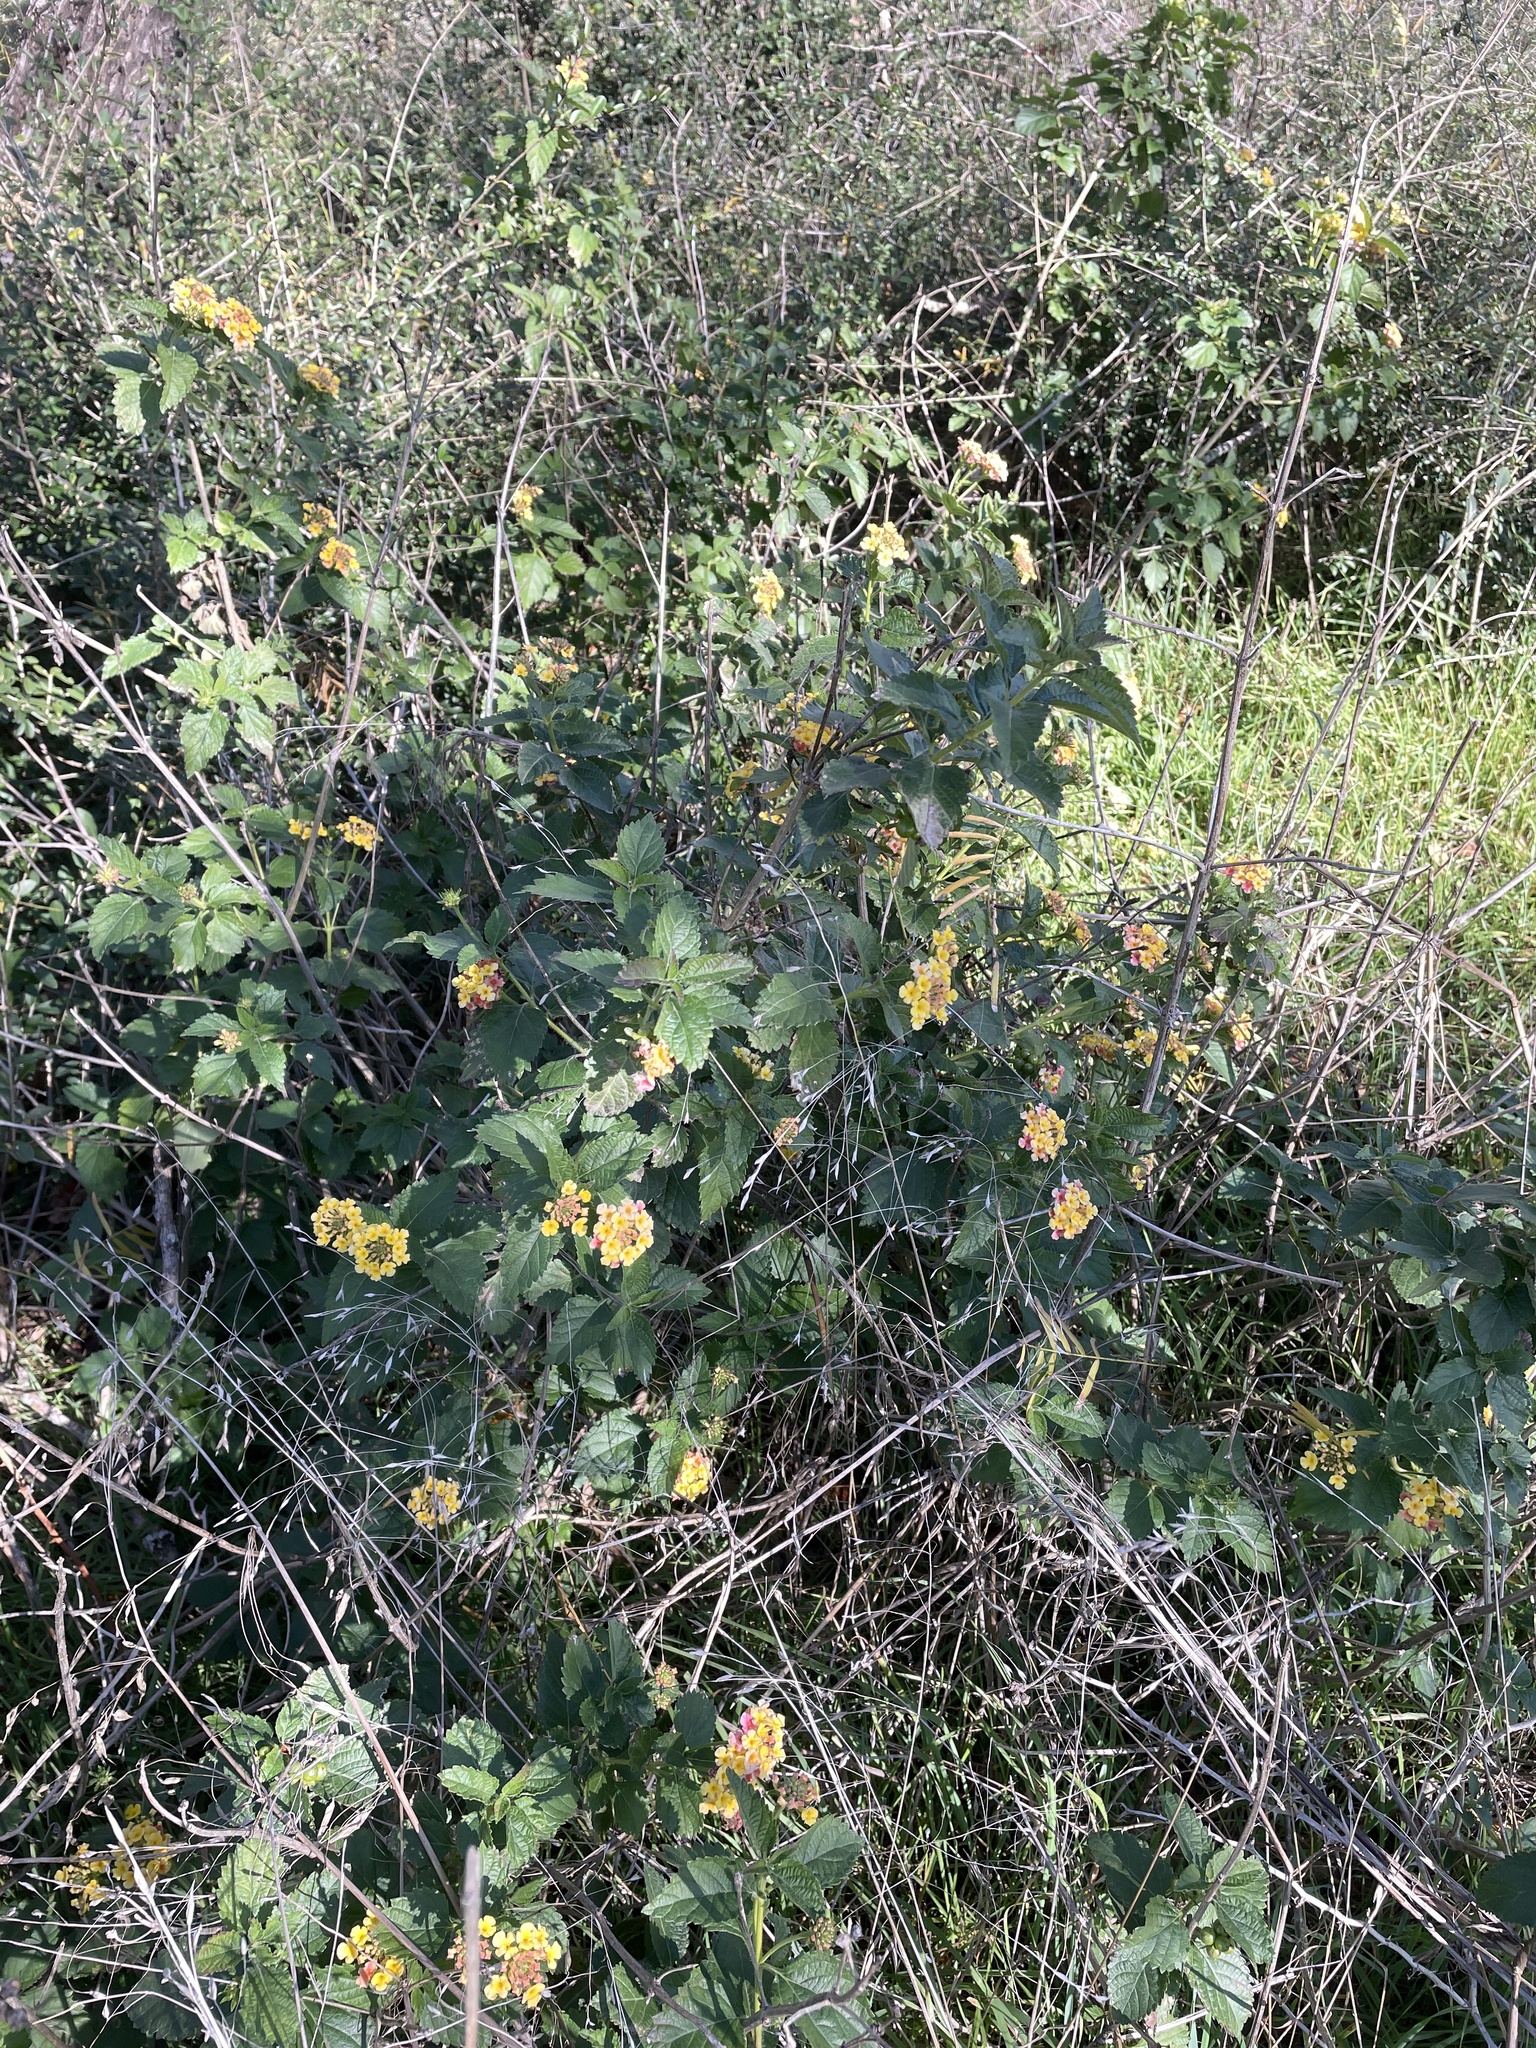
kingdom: Plantae
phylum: Tracheophyta
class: Magnoliopsida
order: Lamiales
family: Verbenaceae
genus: Lantana
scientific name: Lantana strigocamara
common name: Lantana
